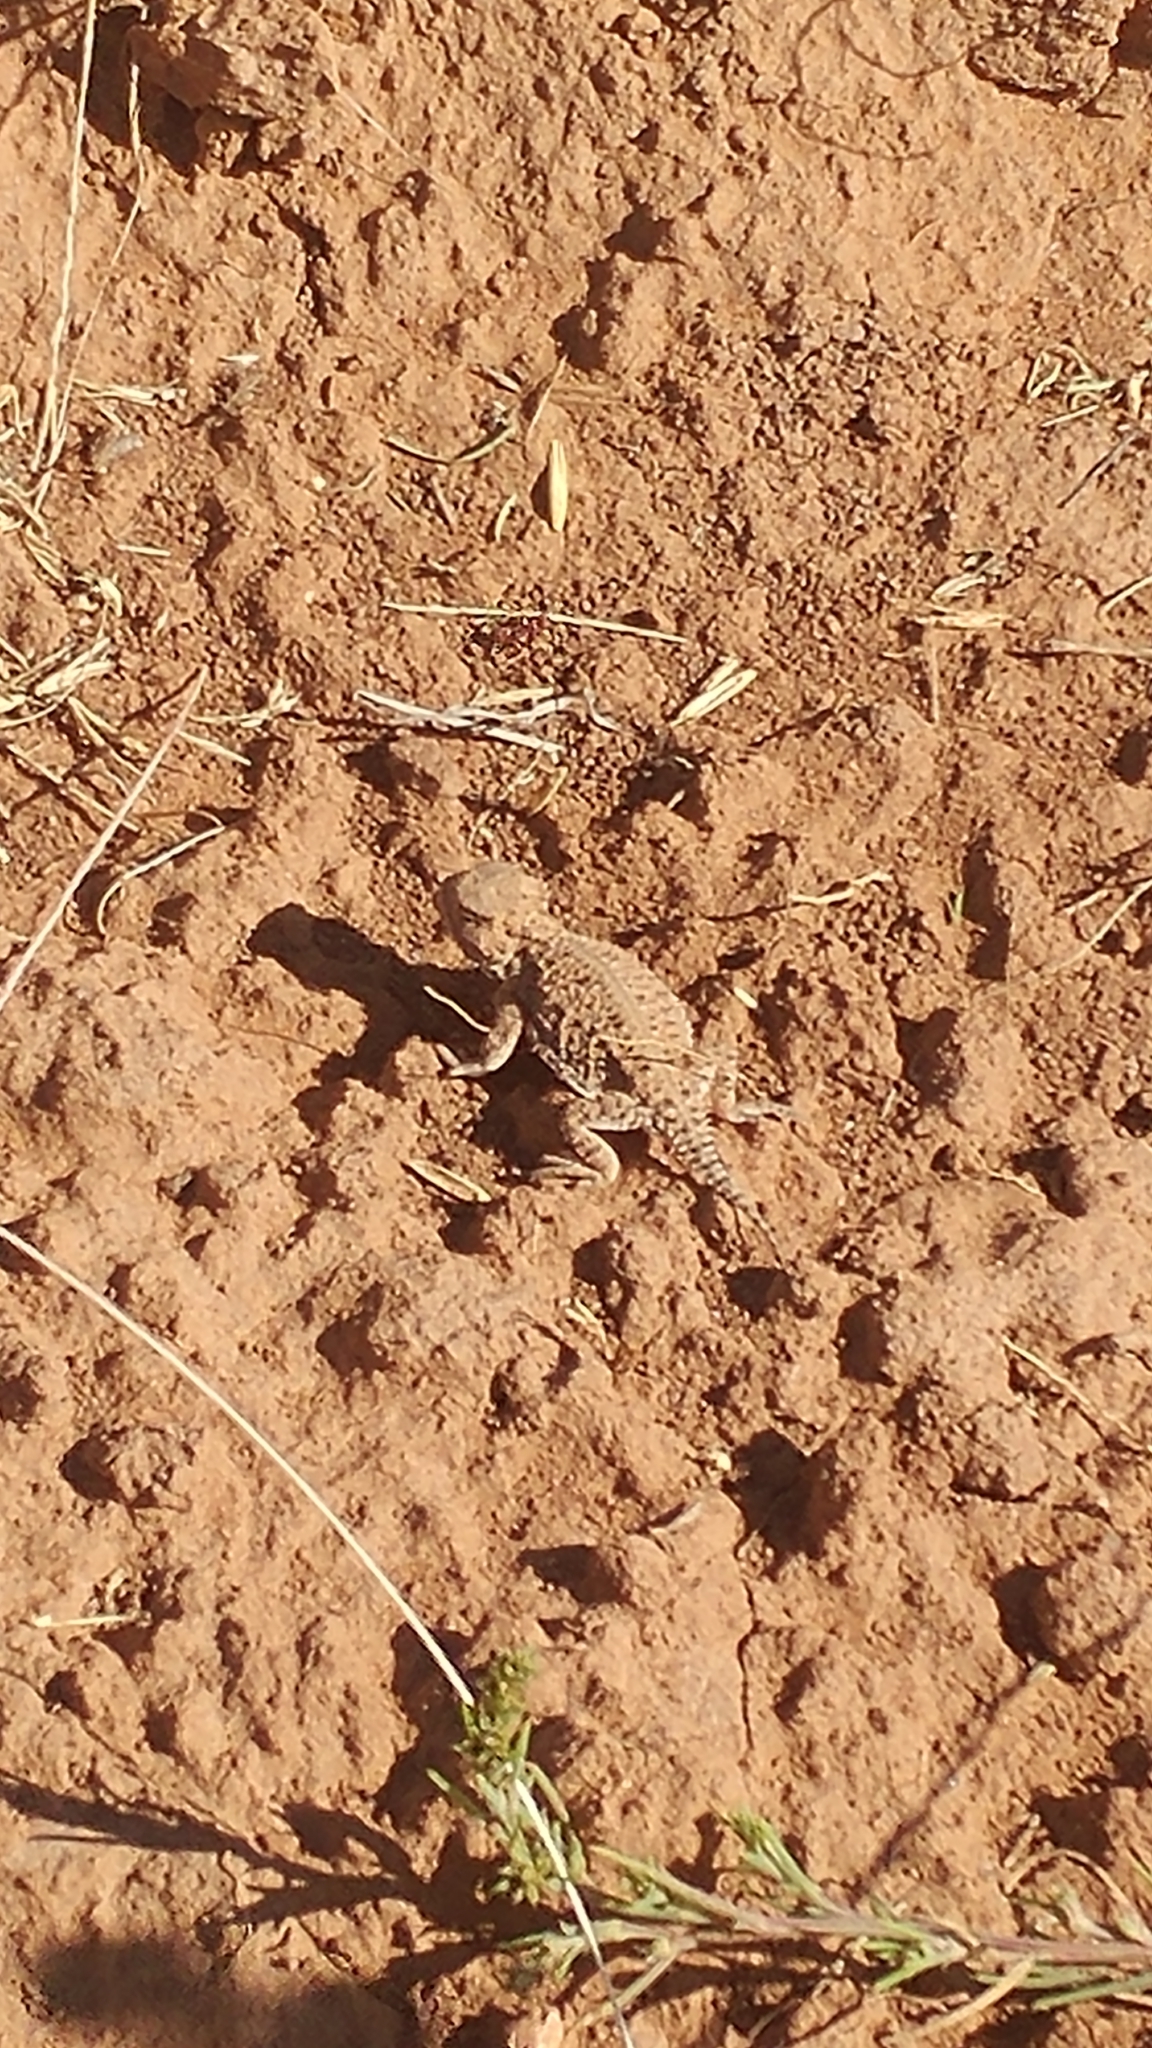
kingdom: Animalia
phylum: Chordata
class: Squamata
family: Phrynosomatidae
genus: Phrynosoma
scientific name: Phrynosoma hernandesi
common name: Greater short-horned lizard
